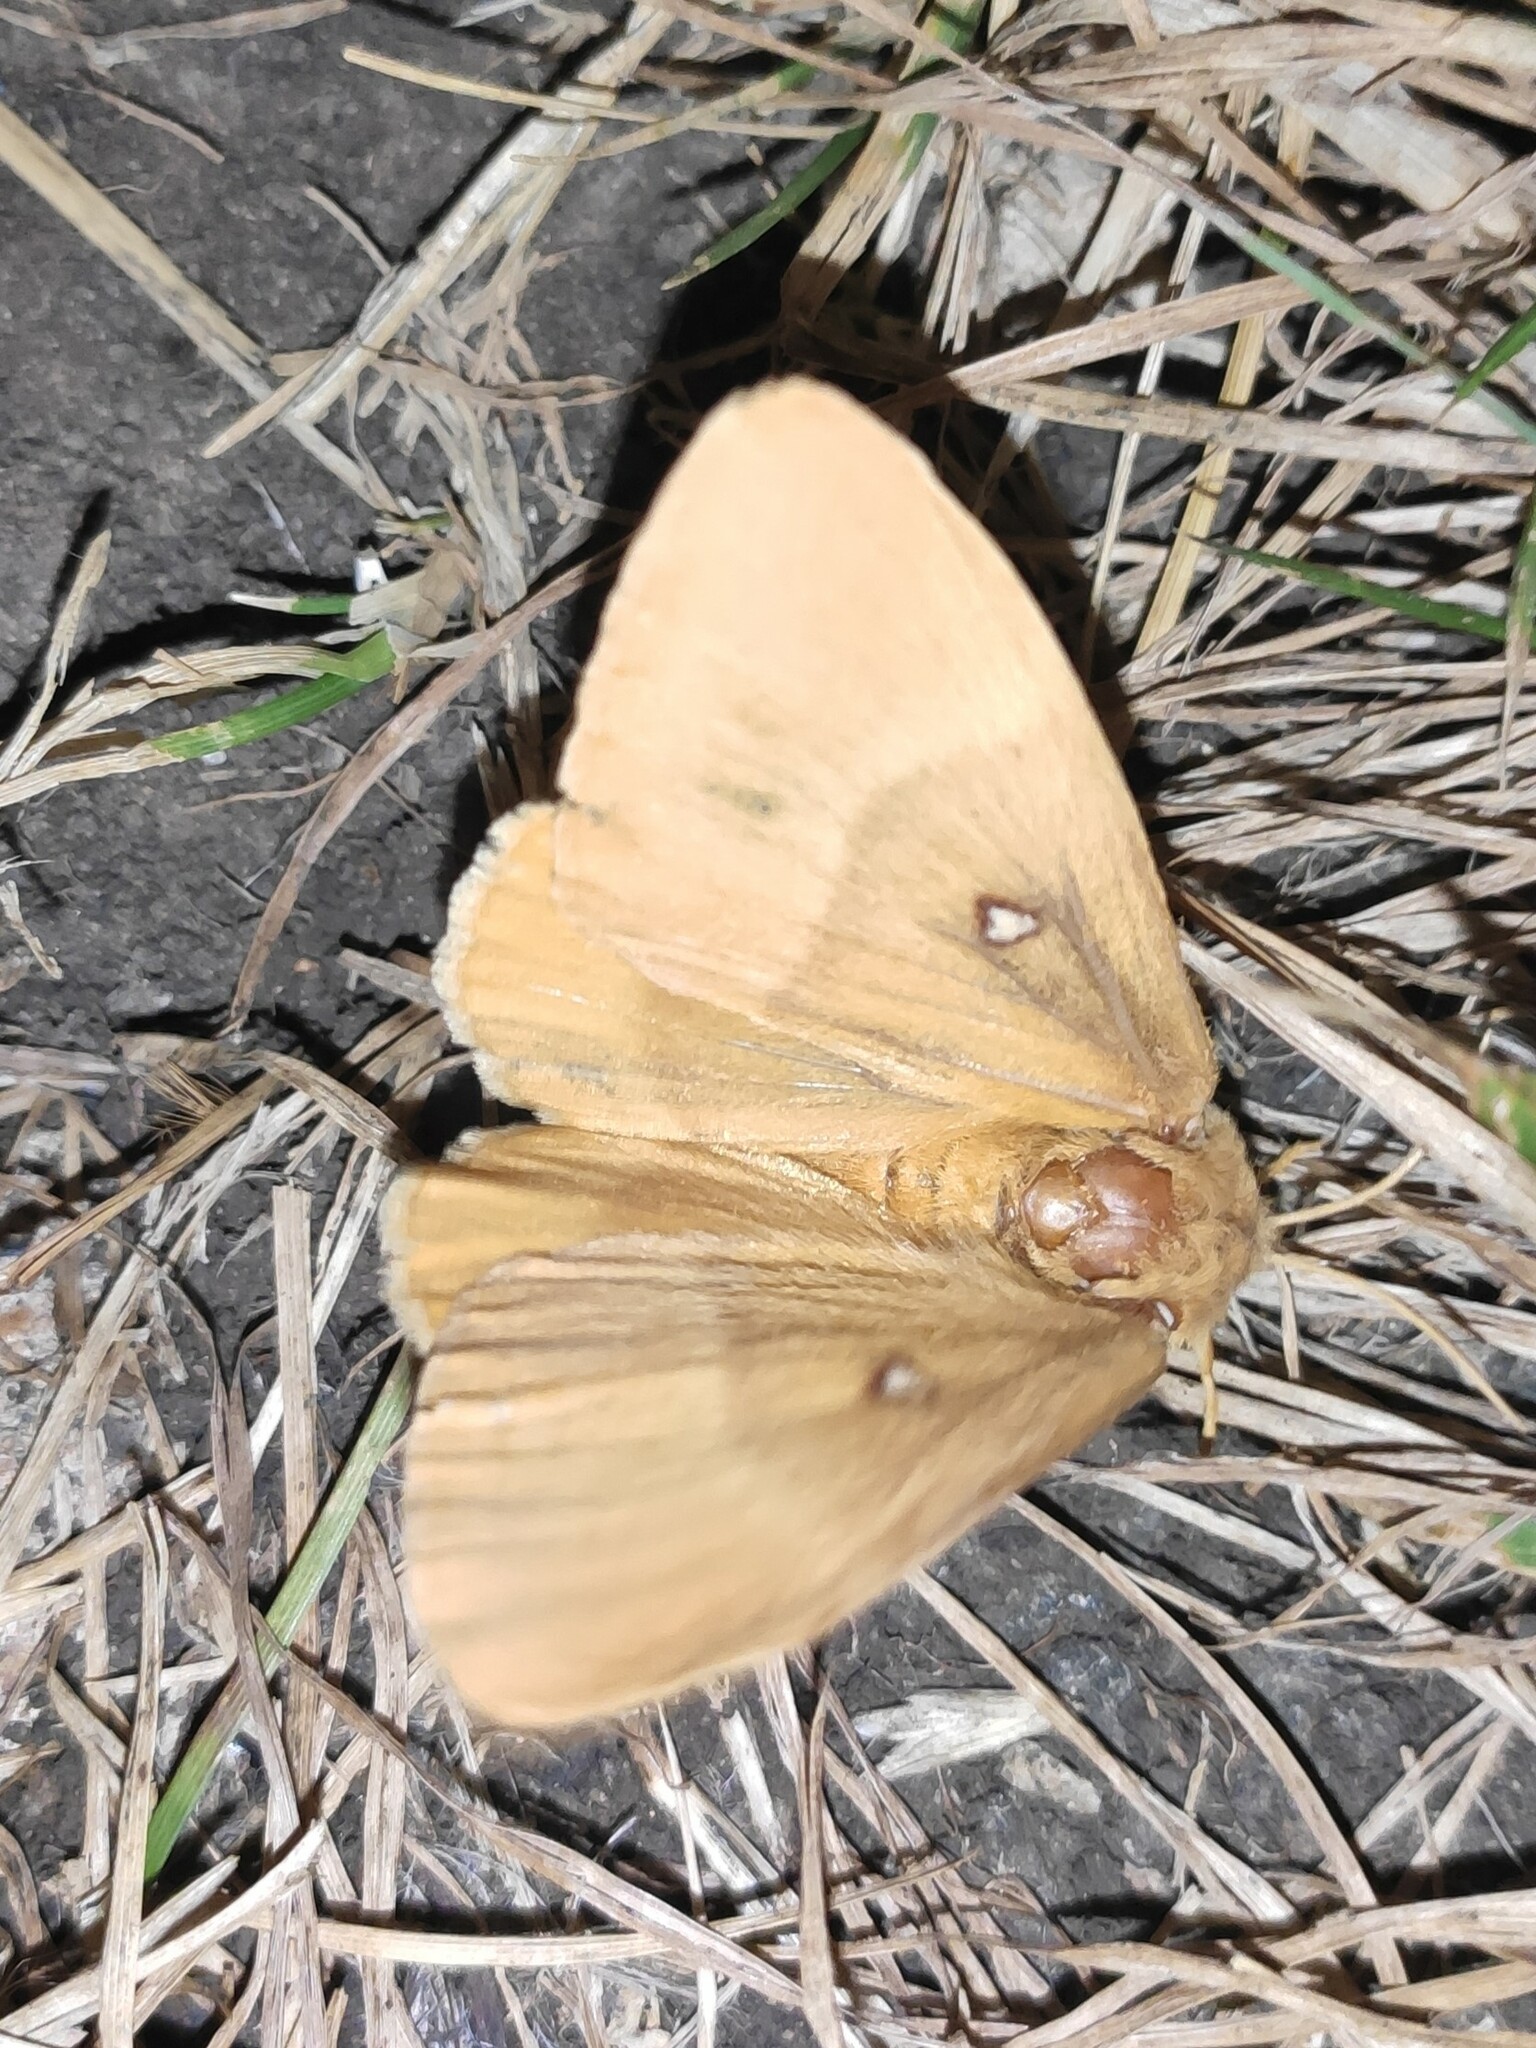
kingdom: Animalia
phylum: Arthropoda
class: Insecta
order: Lepidoptera
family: Lasiocampidae
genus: Lasiocampa
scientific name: Lasiocampa quercus
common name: Oak eggar
